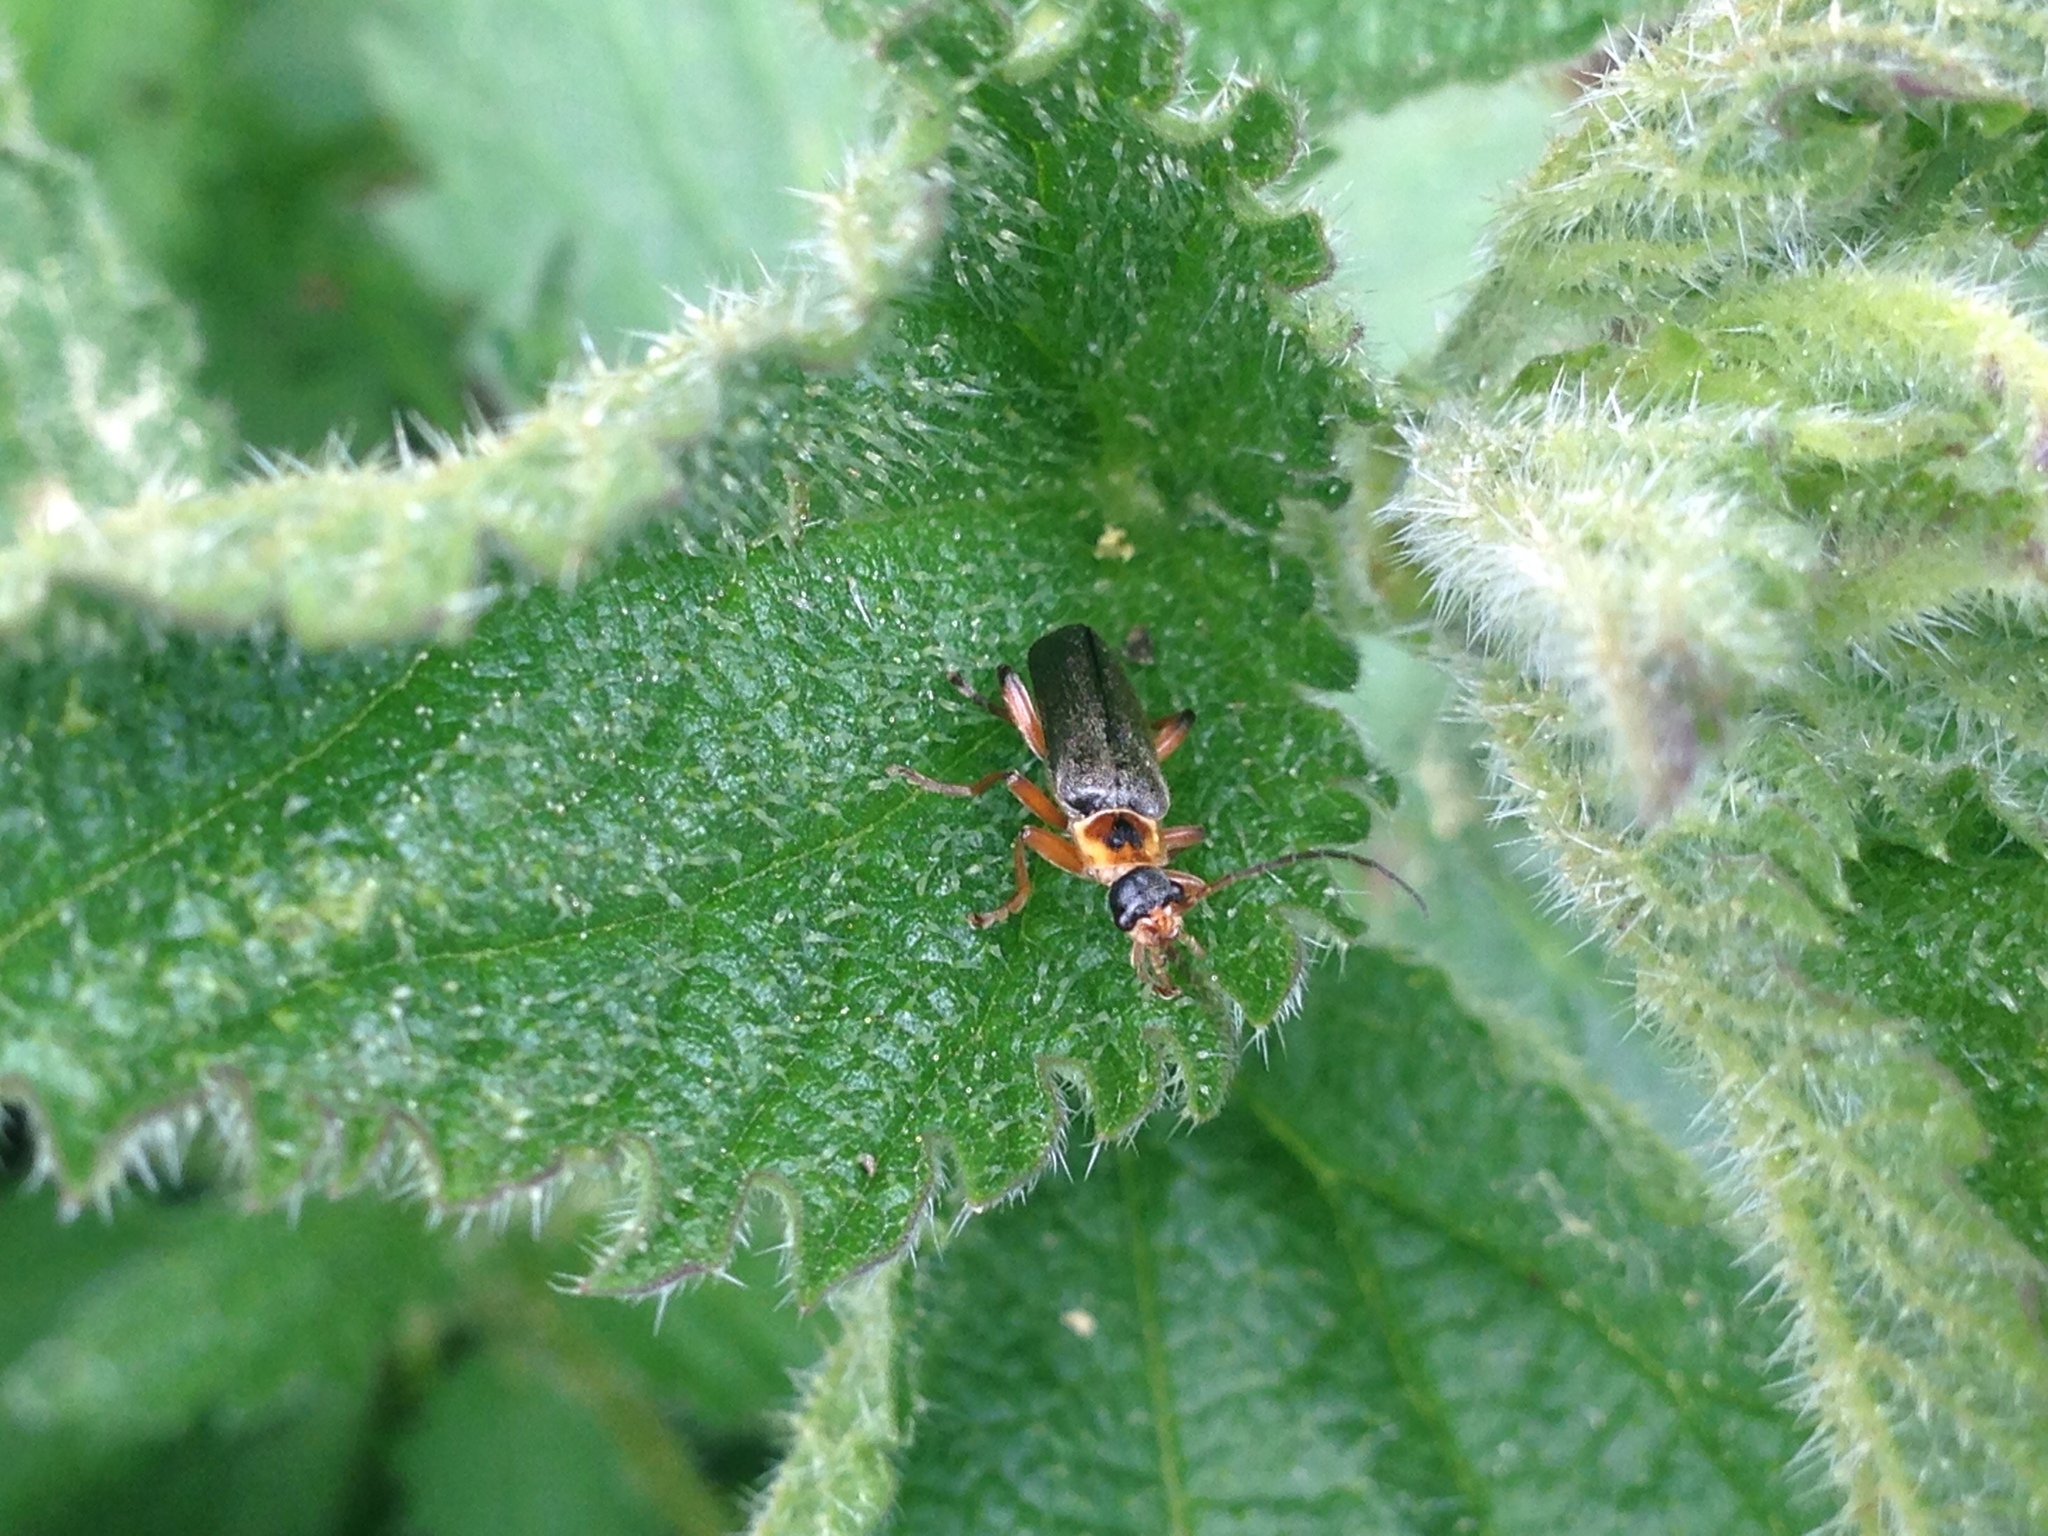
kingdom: Animalia
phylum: Arthropoda
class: Insecta
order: Coleoptera
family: Cantharidae
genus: Cantharis
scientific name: Cantharis nigricans
